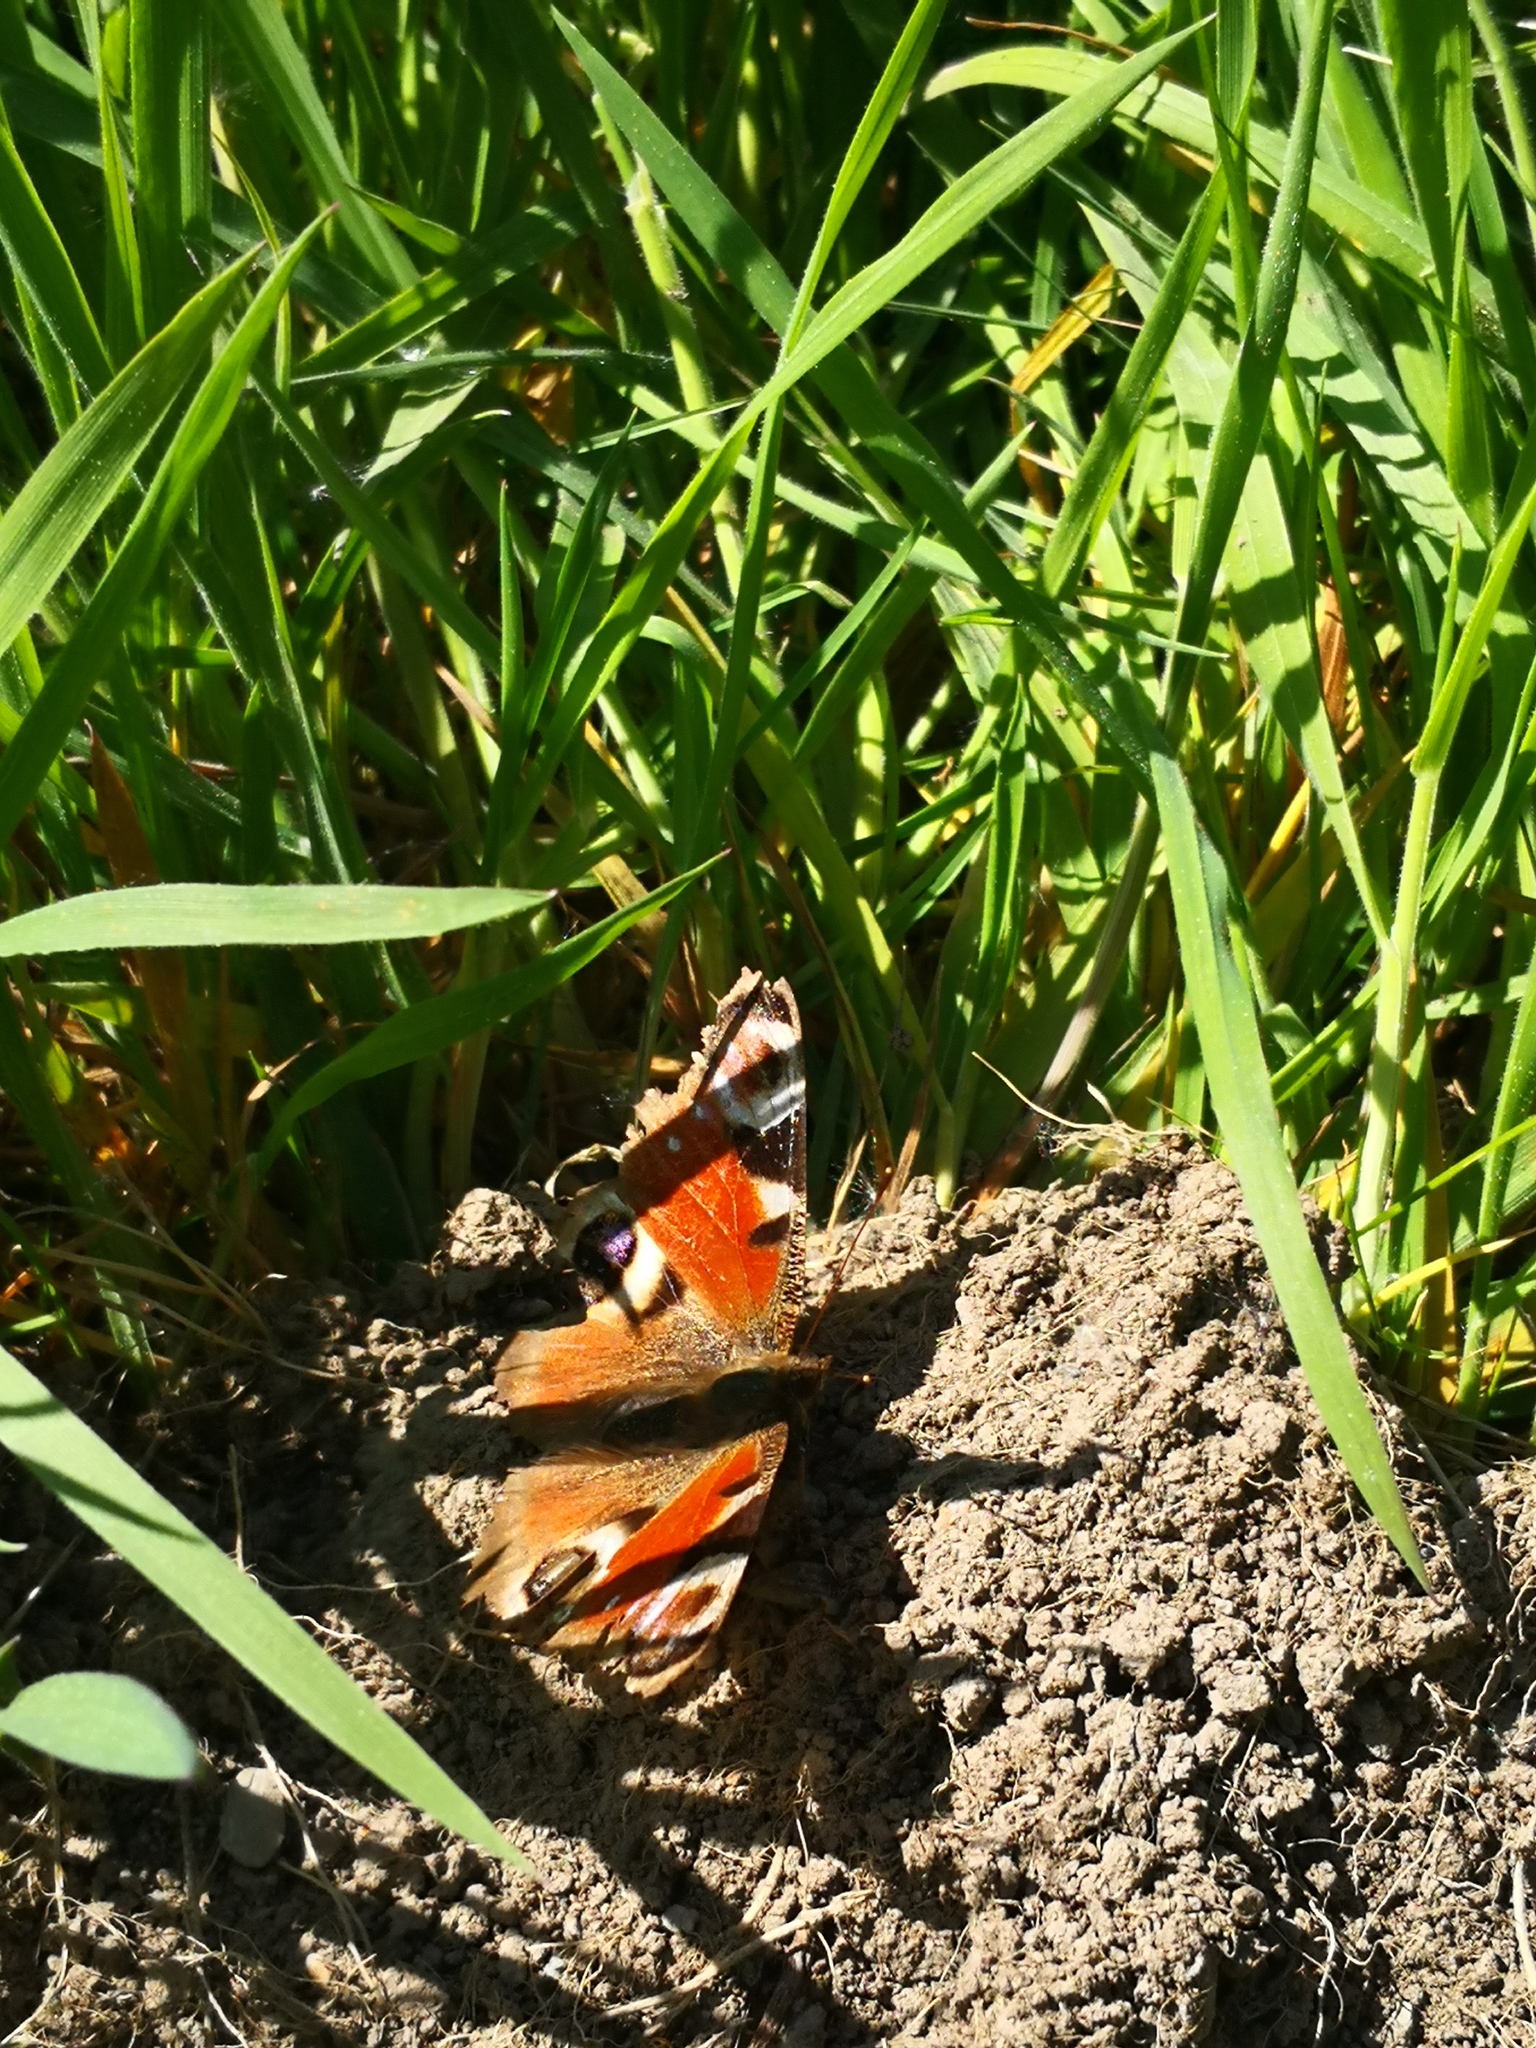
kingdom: Animalia
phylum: Arthropoda
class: Insecta
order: Lepidoptera
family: Nymphalidae
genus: Aglais
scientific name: Aglais io
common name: Peacock
